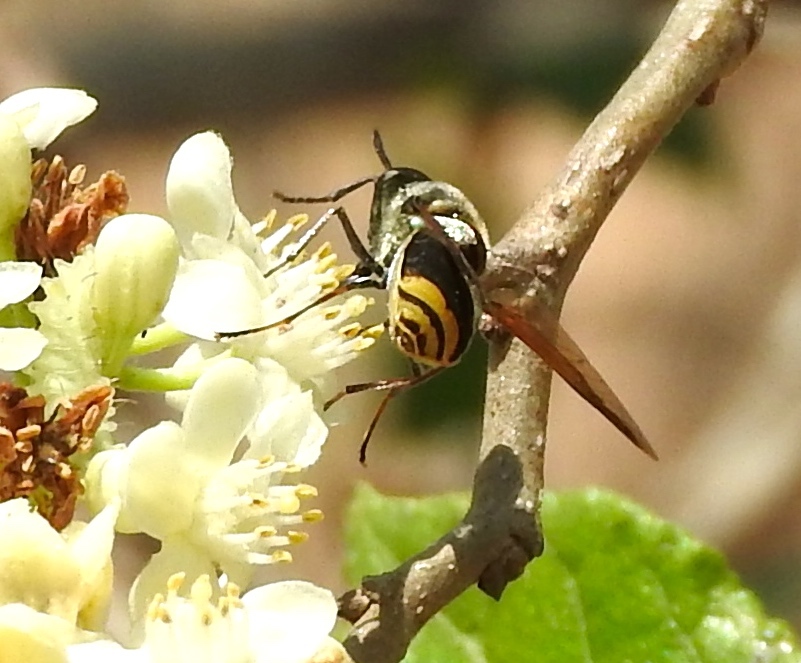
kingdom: Animalia
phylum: Arthropoda
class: Insecta
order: Diptera
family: Stratiomyidae
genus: Hoplitimyia
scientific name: Hoplitimyia
